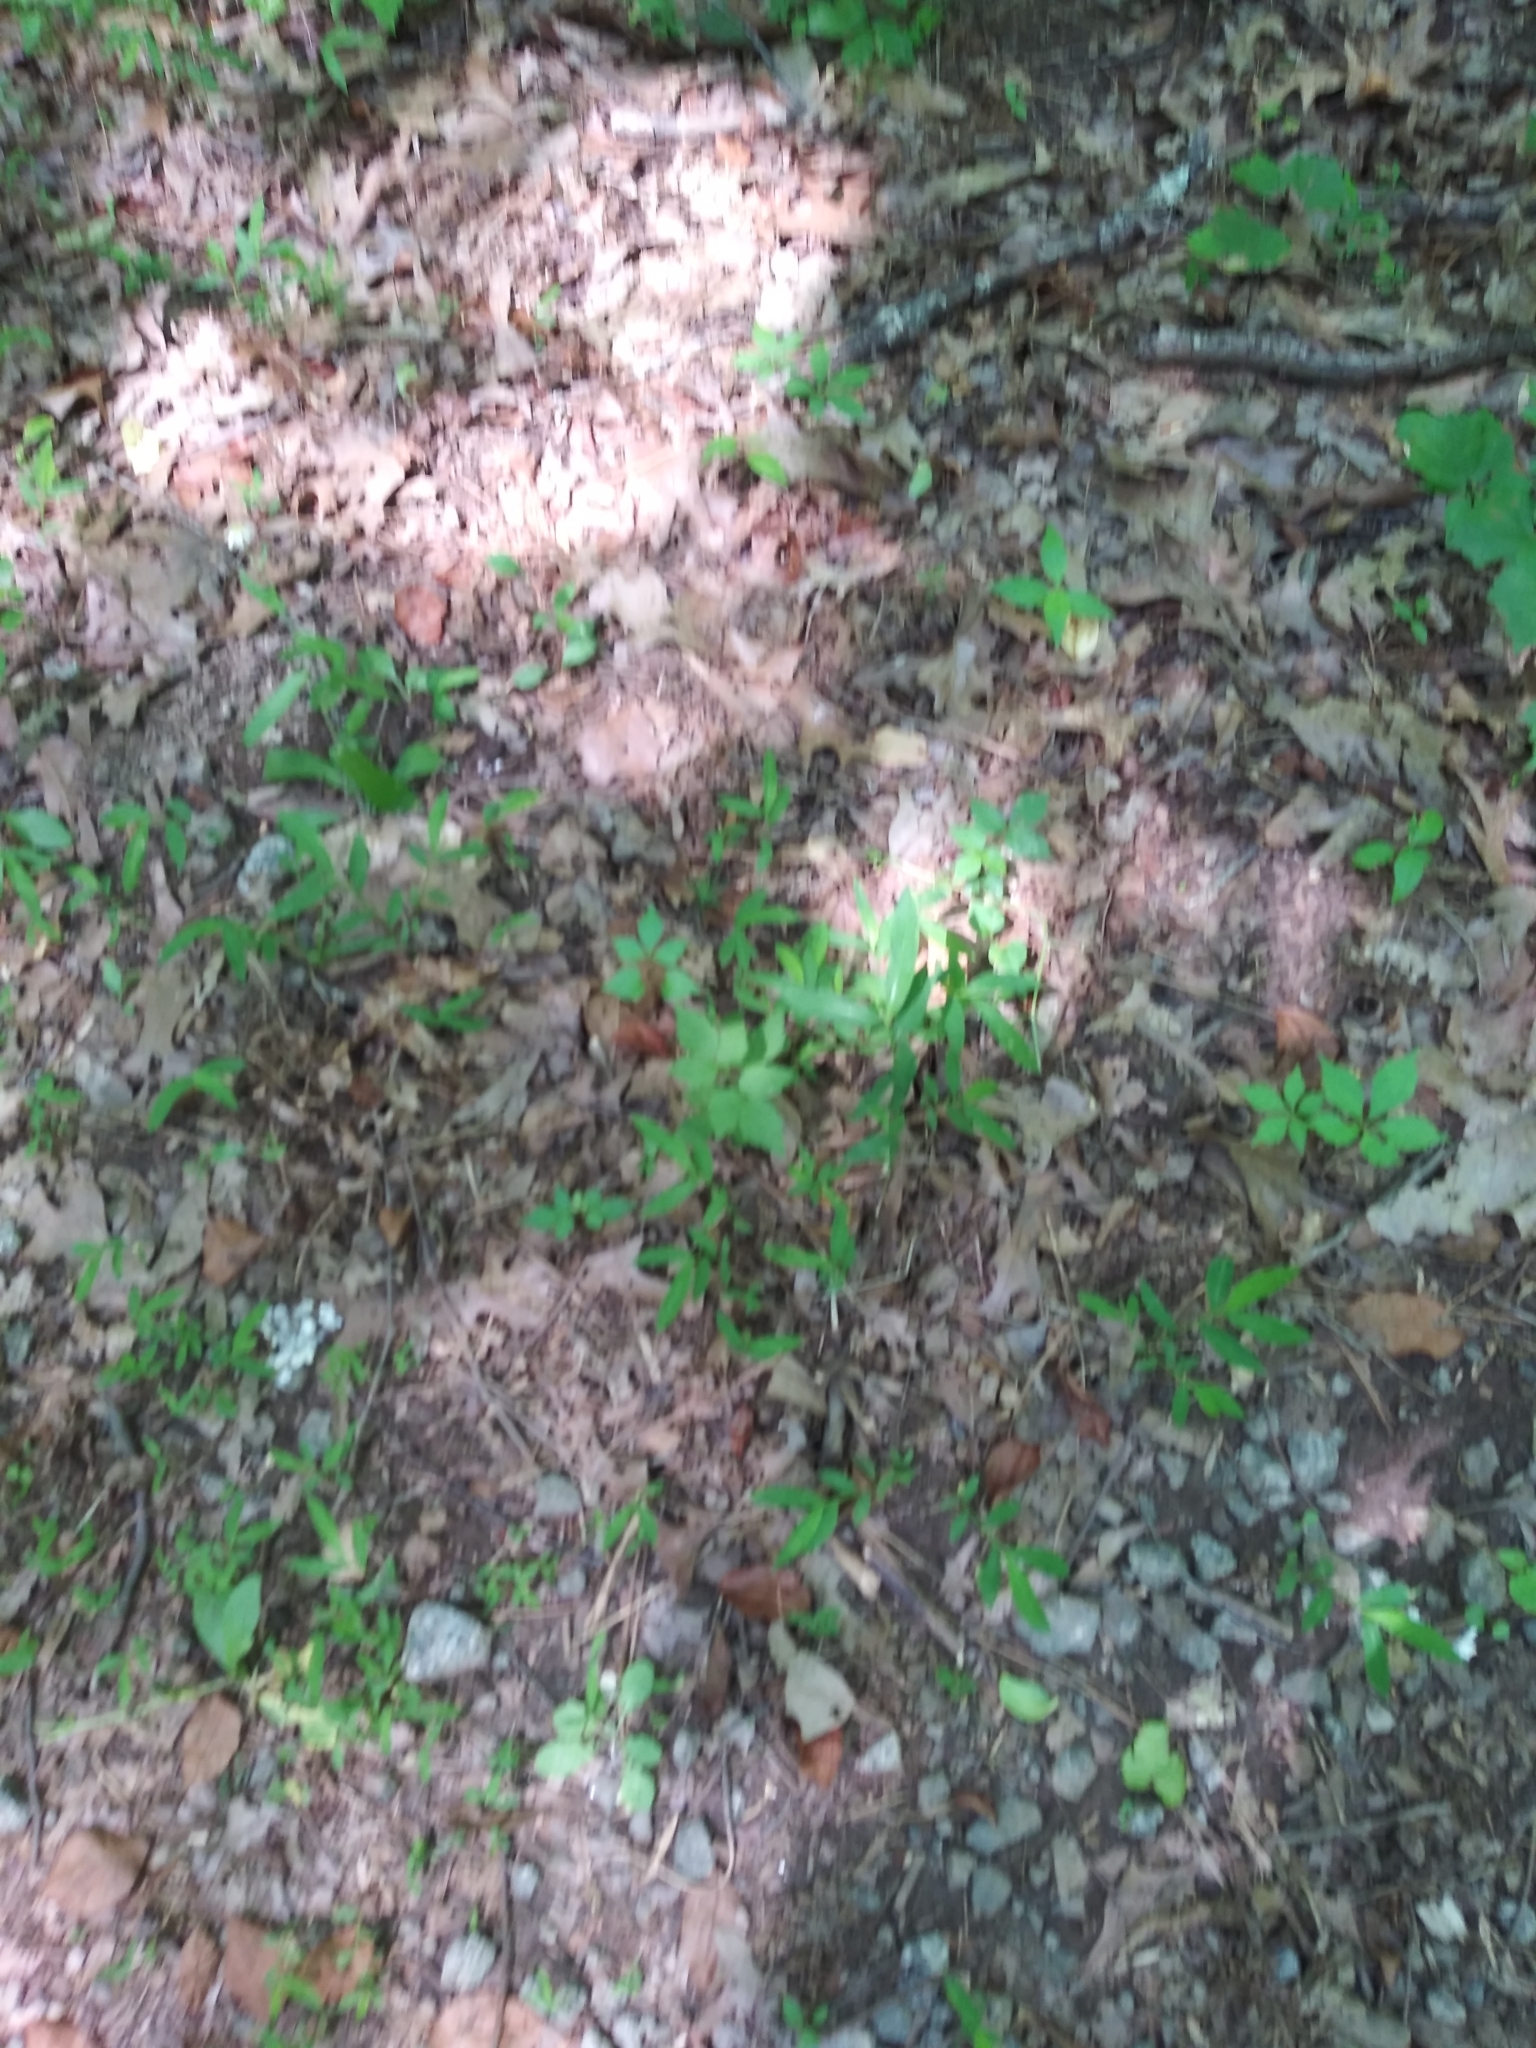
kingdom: Plantae
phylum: Tracheophyta
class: Liliopsida
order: Poales
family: Poaceae
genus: Microstegium
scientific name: Microstegium vimineum
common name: Japanese stiltgrass
